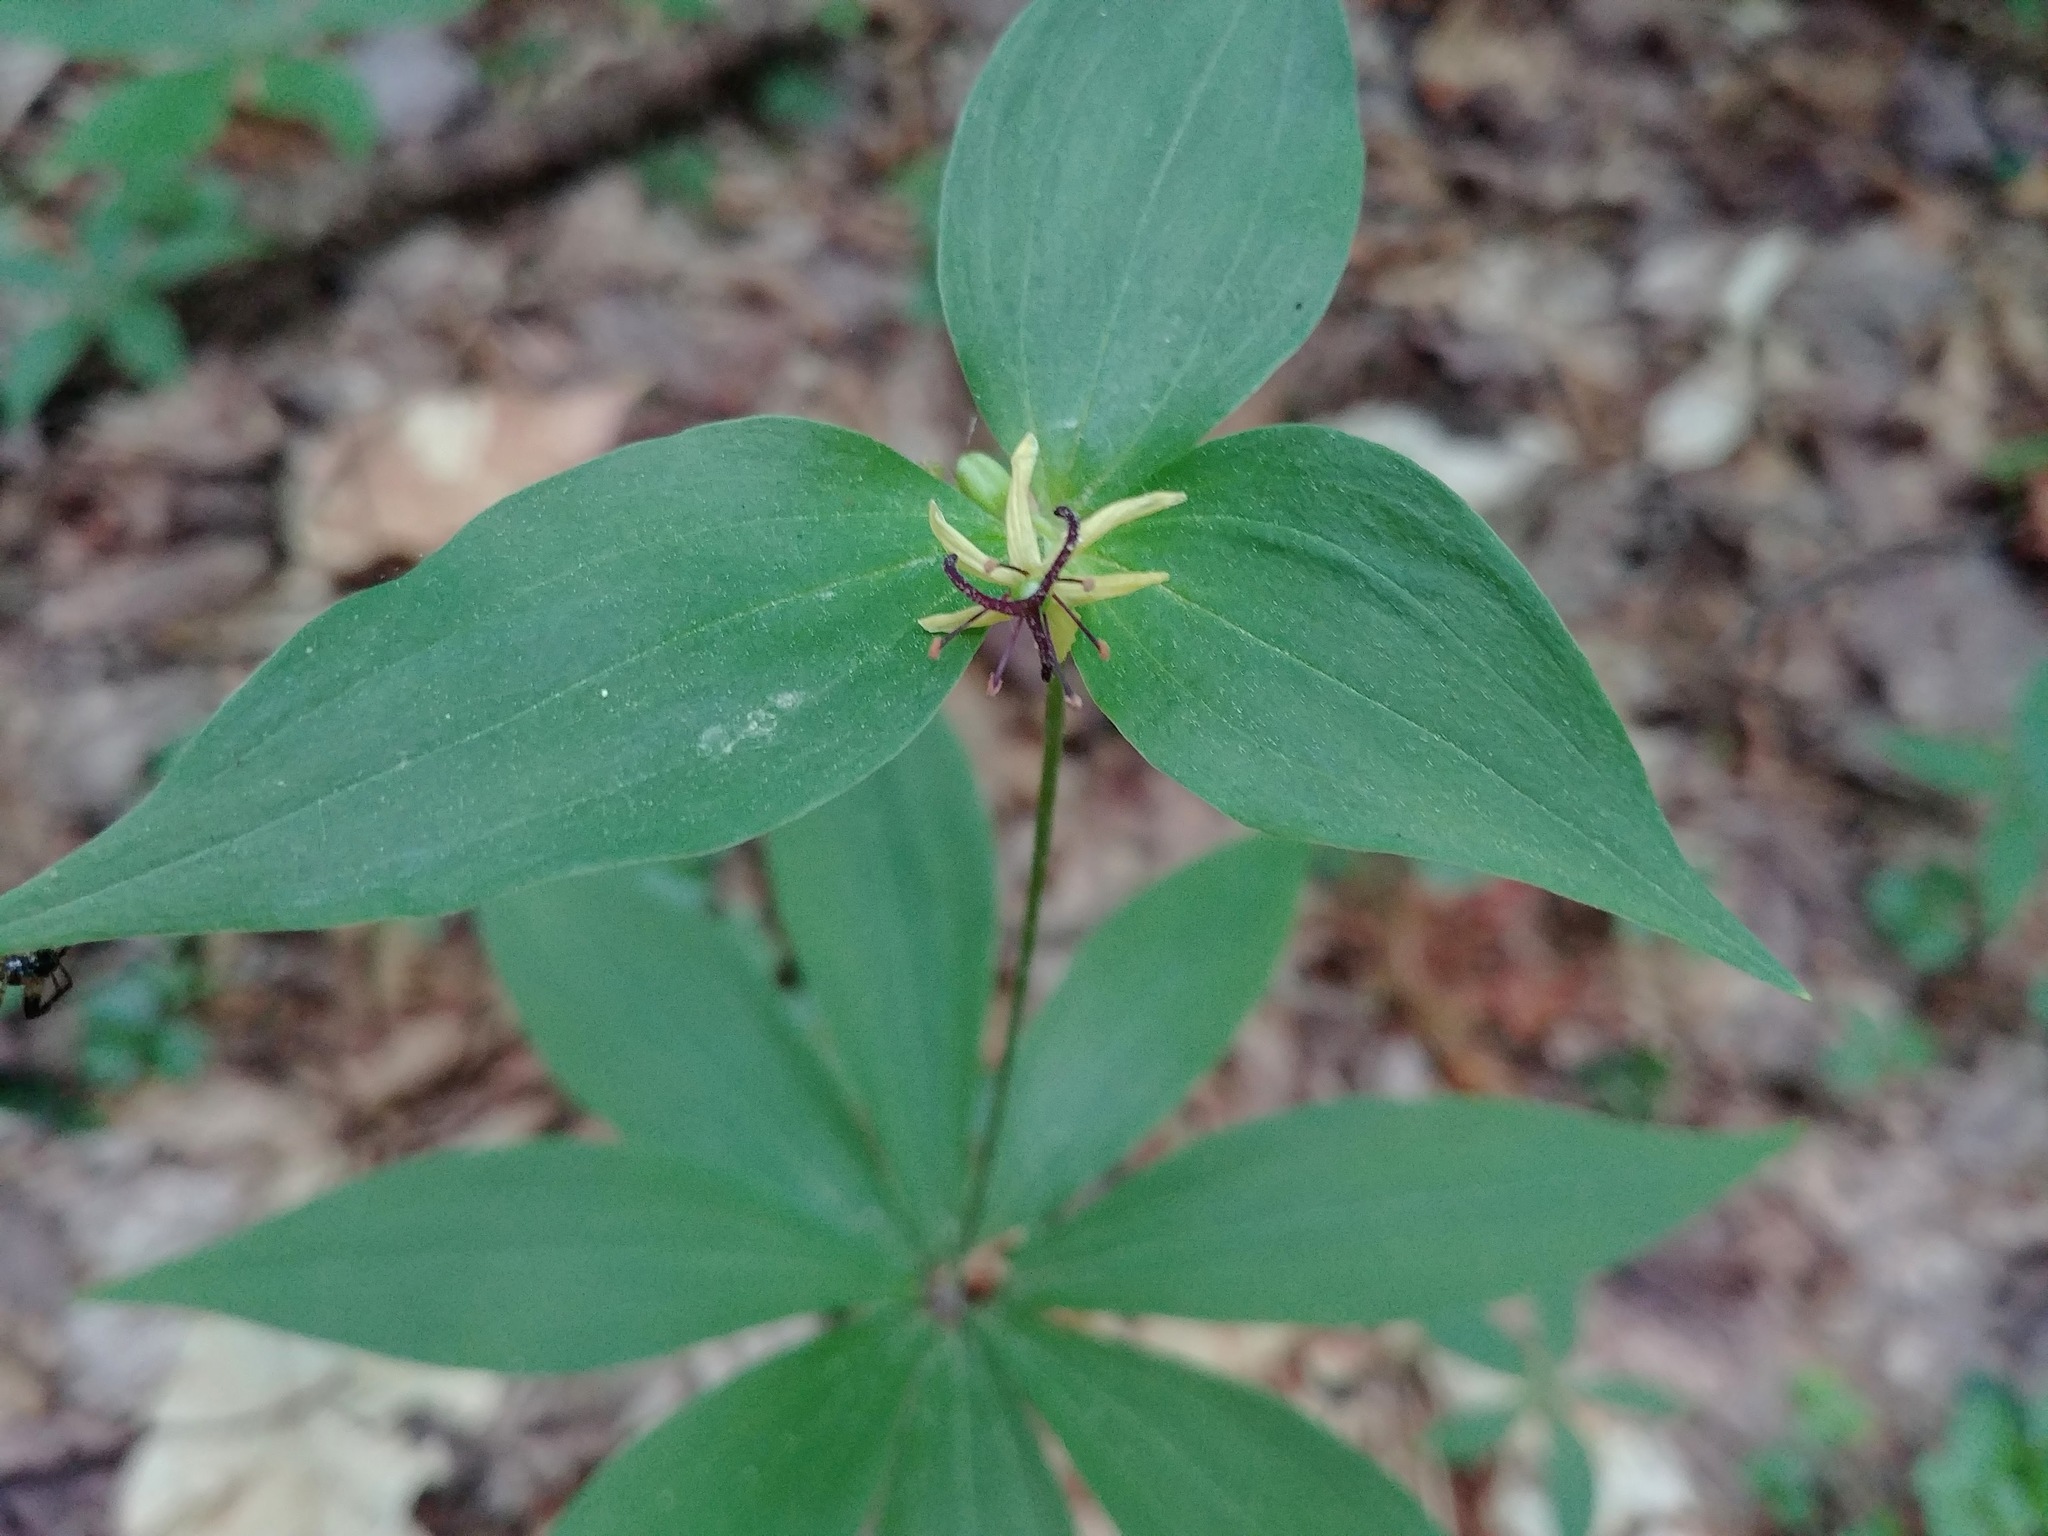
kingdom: Plantae
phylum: Tracheophyta
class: Liliopsida
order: Liliales
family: Liliaceae
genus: Medeola
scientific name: Medeola virginiana
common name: Indian cucumber-root
